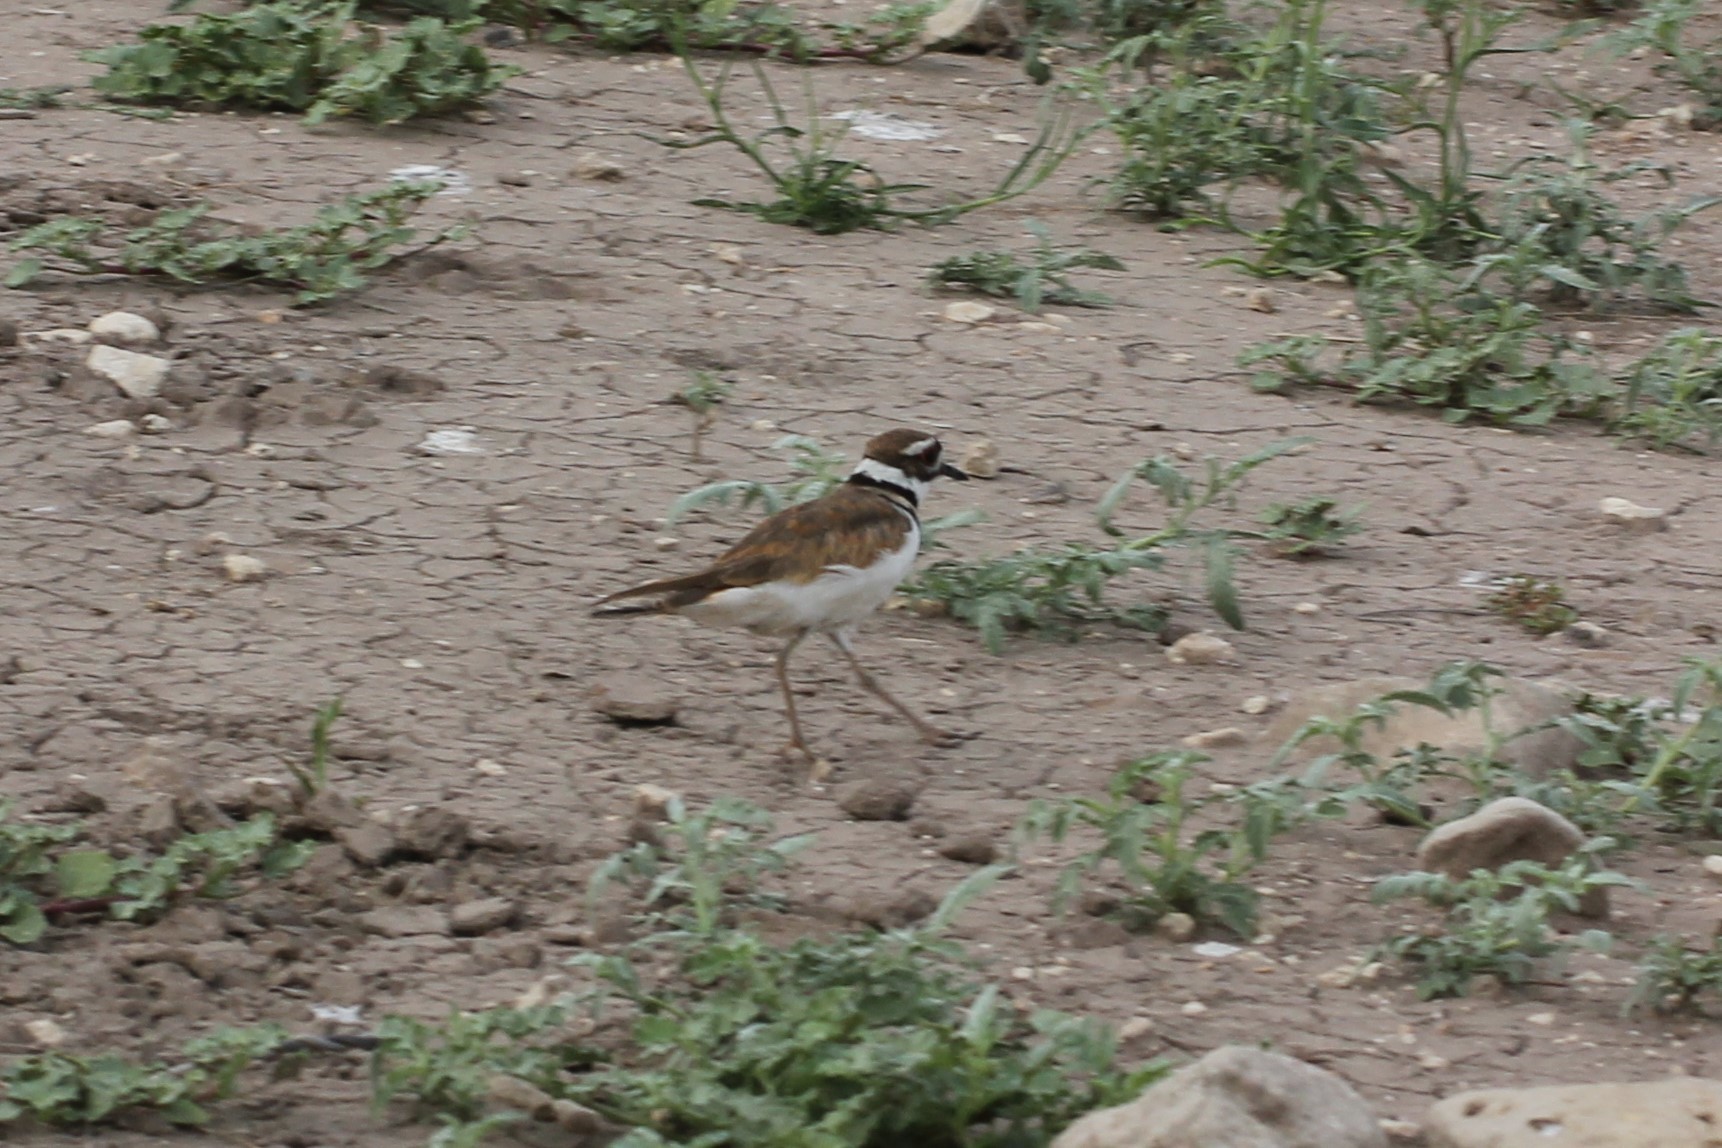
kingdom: Animalia
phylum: Chordata
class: Aves
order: Charadriiformes
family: Charadriidae
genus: Charadrius
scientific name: Charadrius vociferus
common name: Killdeer
